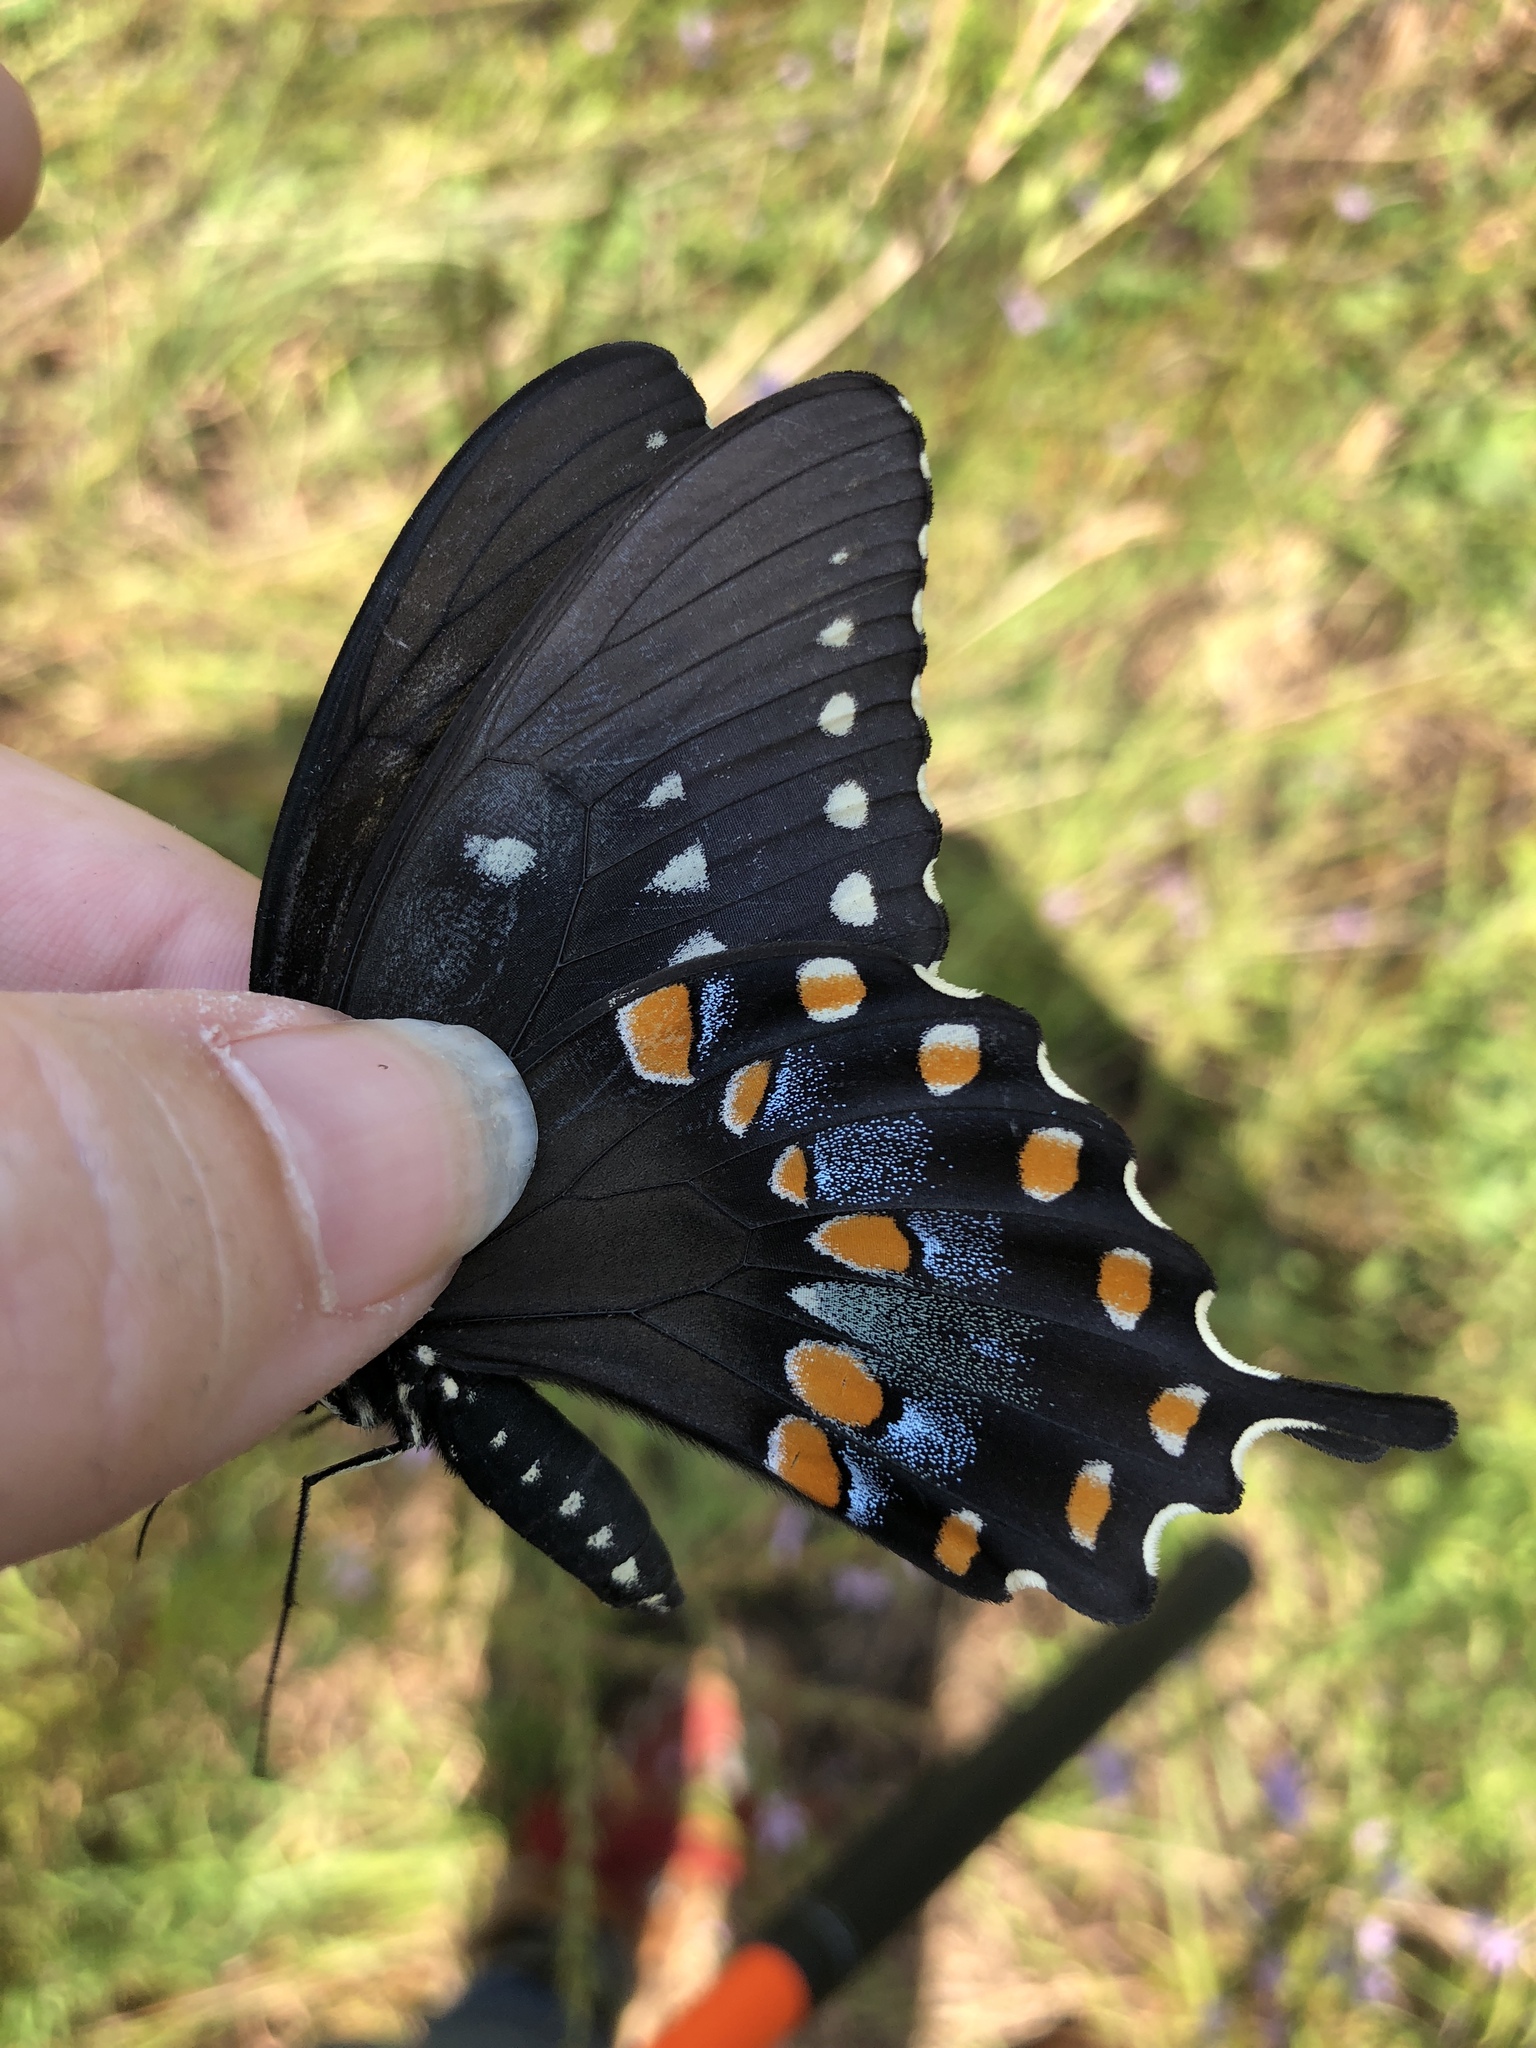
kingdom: Animalia
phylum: Arthropoda
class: Insecta
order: Lepidoptera
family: Papilionidae
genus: Papilio
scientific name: Papilio troilus
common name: Spicebush swallowtail
